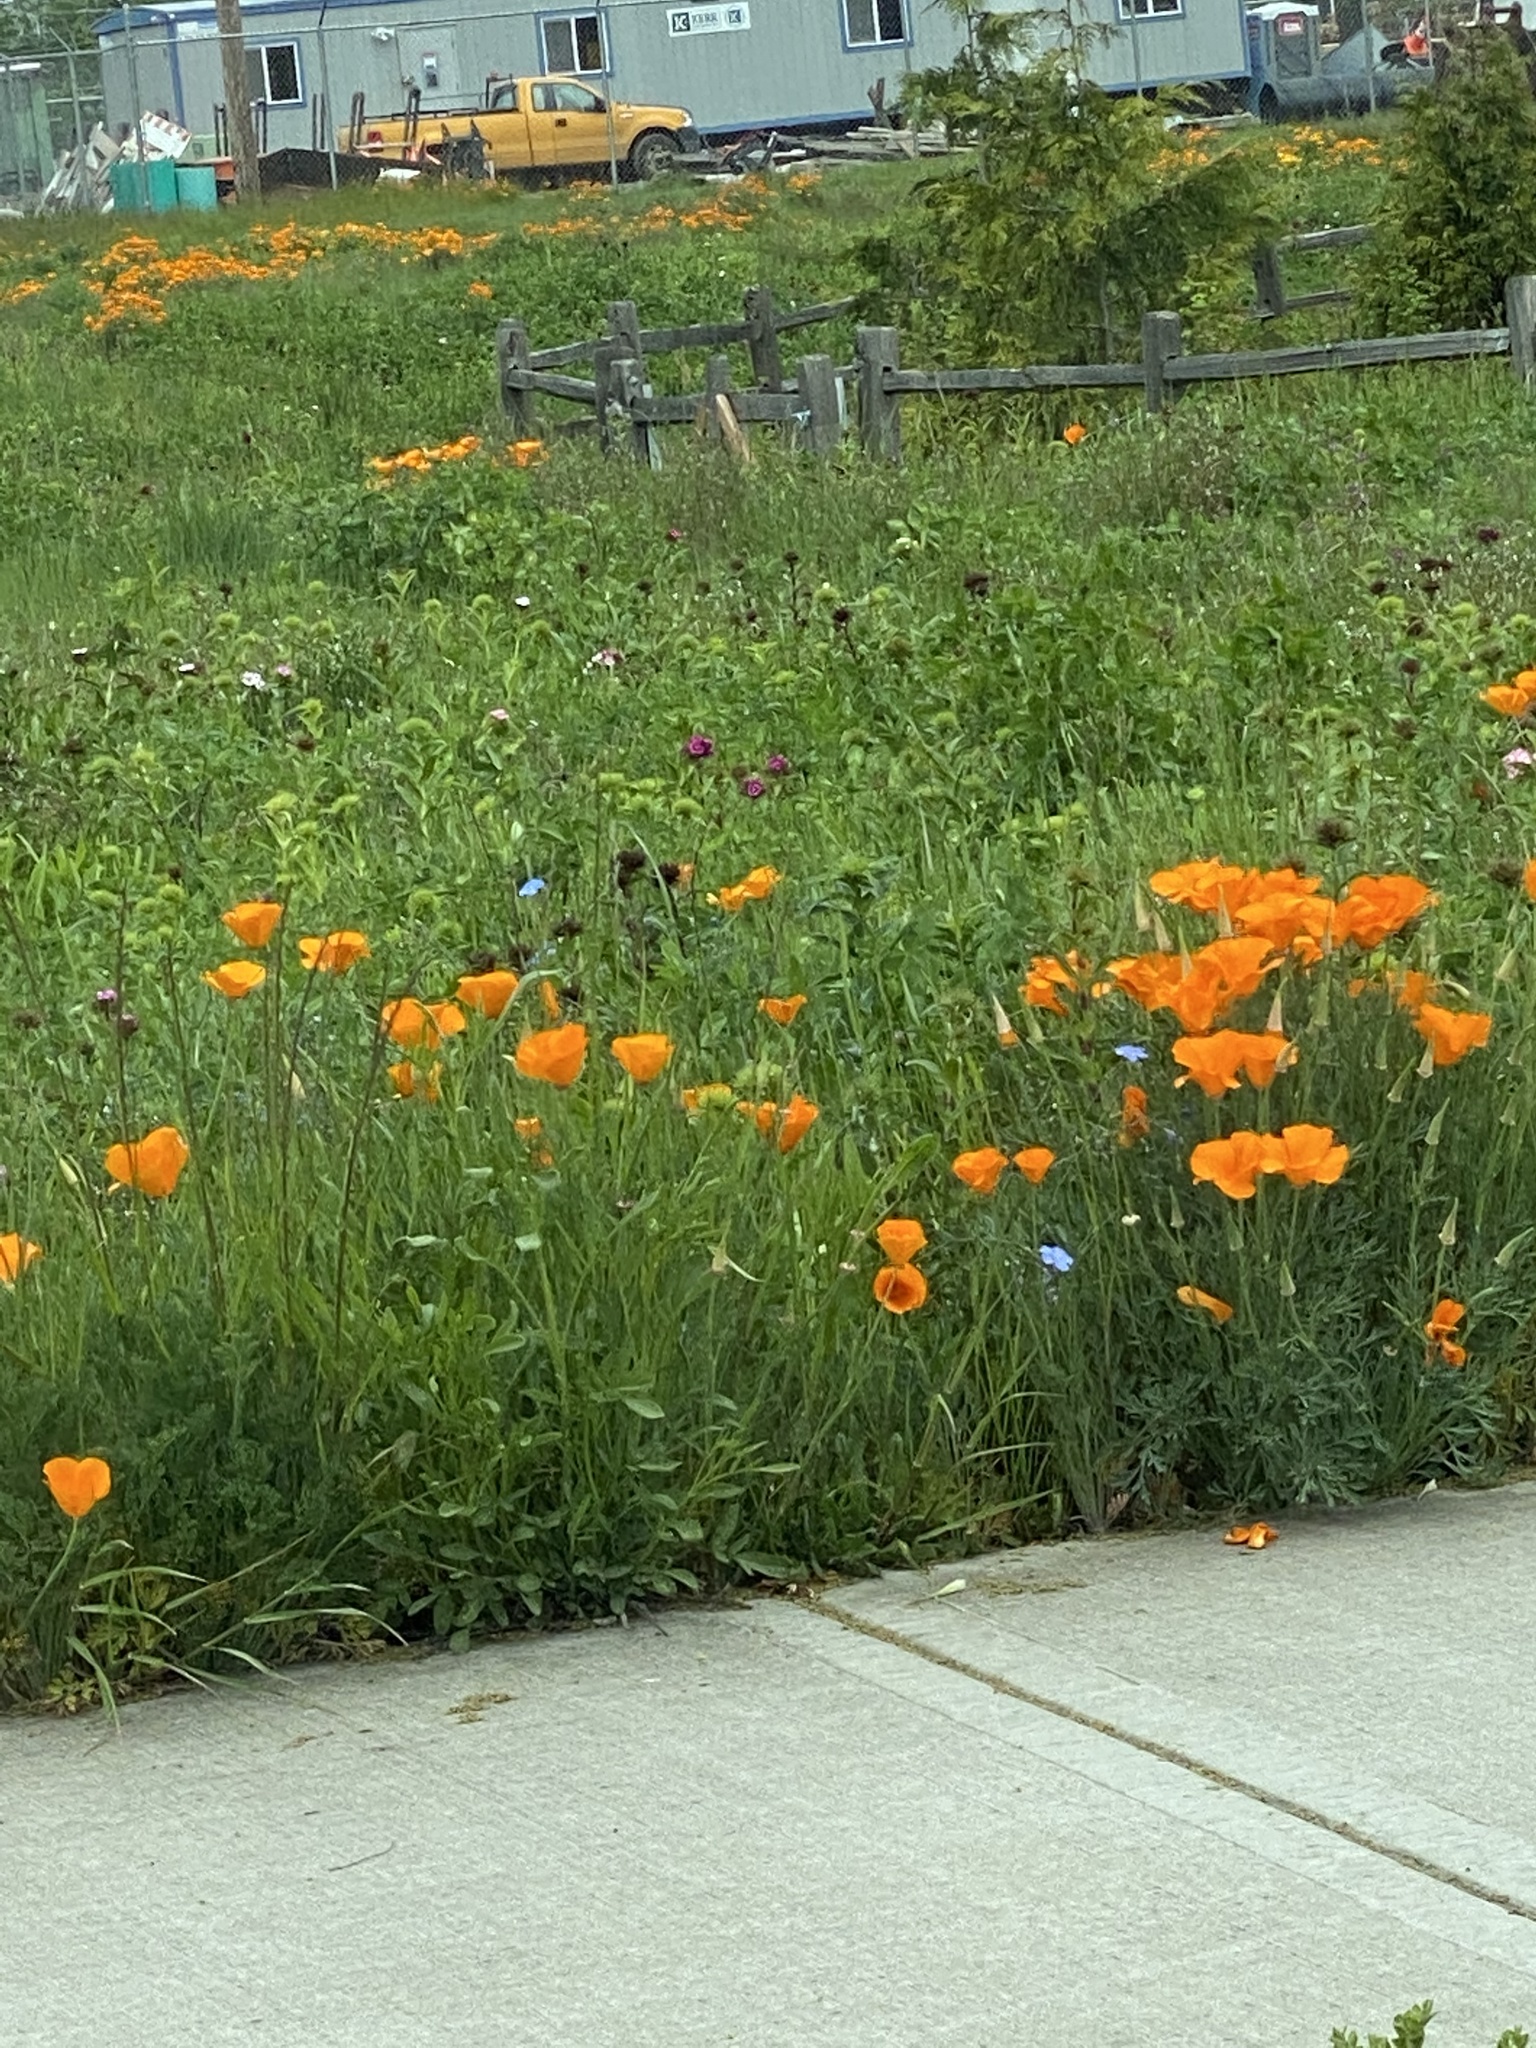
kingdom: Plantae
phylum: Tracheophyta
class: Magnoliopsida
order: Ranunculales
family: Papaveraceae
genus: Eschscholzia
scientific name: Eschscholzia californica
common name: California poppy
